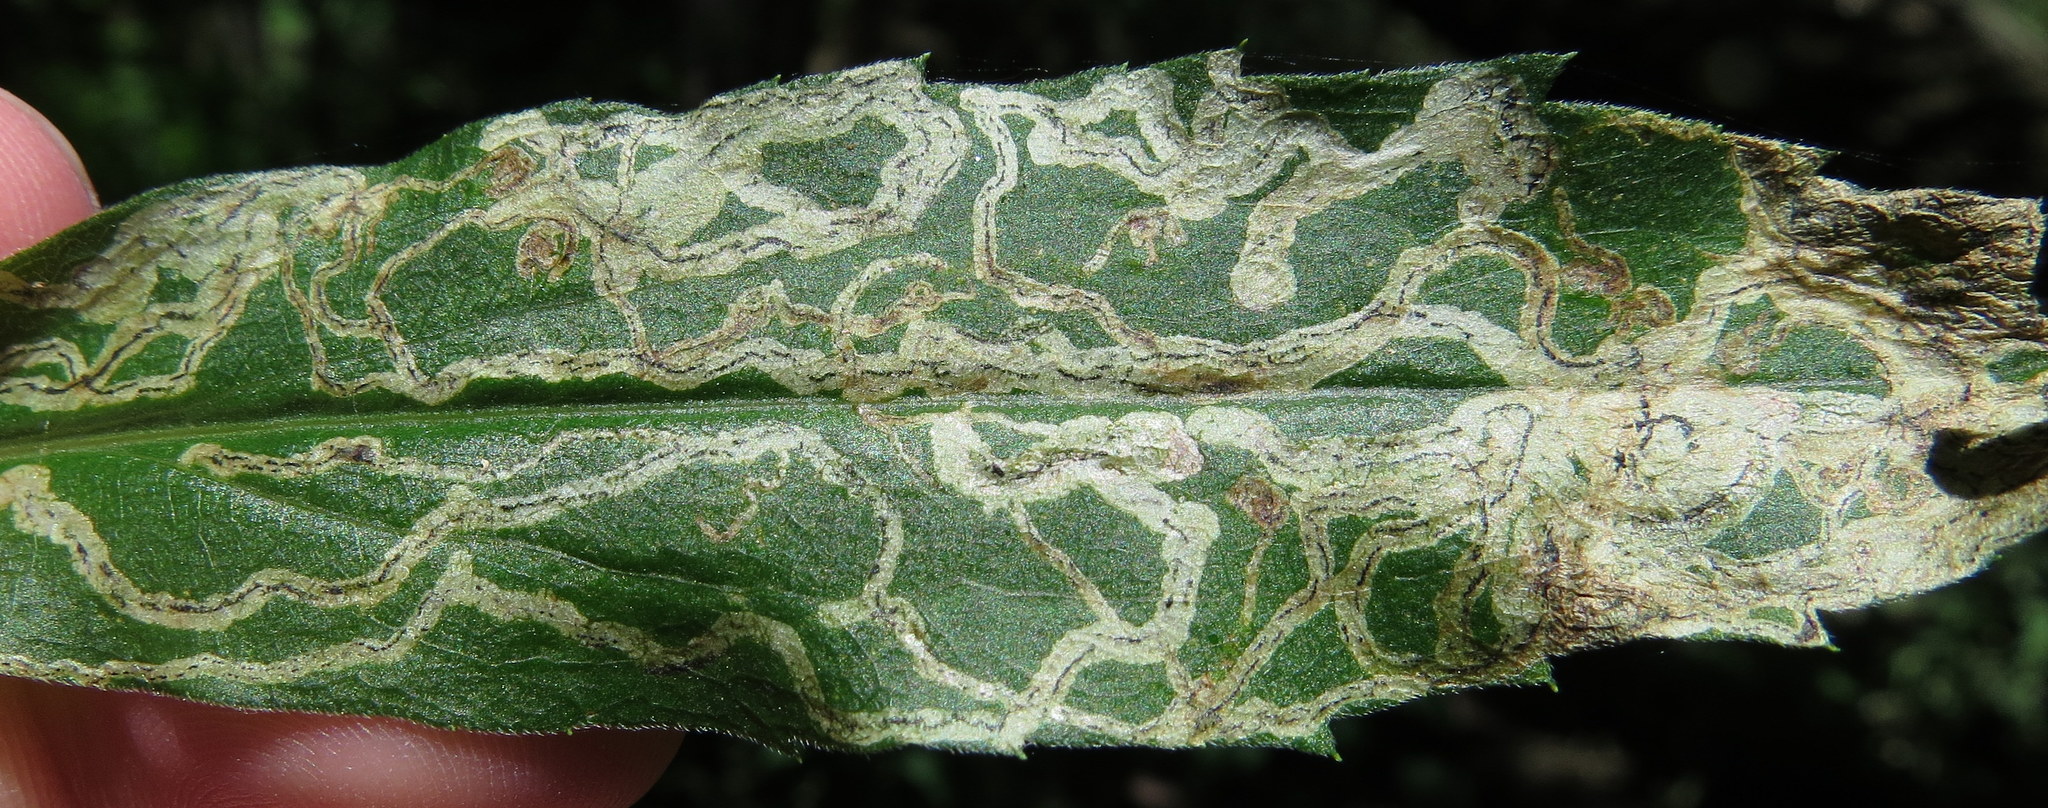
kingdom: Animalia
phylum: Arthropoda
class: Insecta
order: Diptera
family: Agromyzidae
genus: Liriomyza
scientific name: Liriomyza eupatorii
